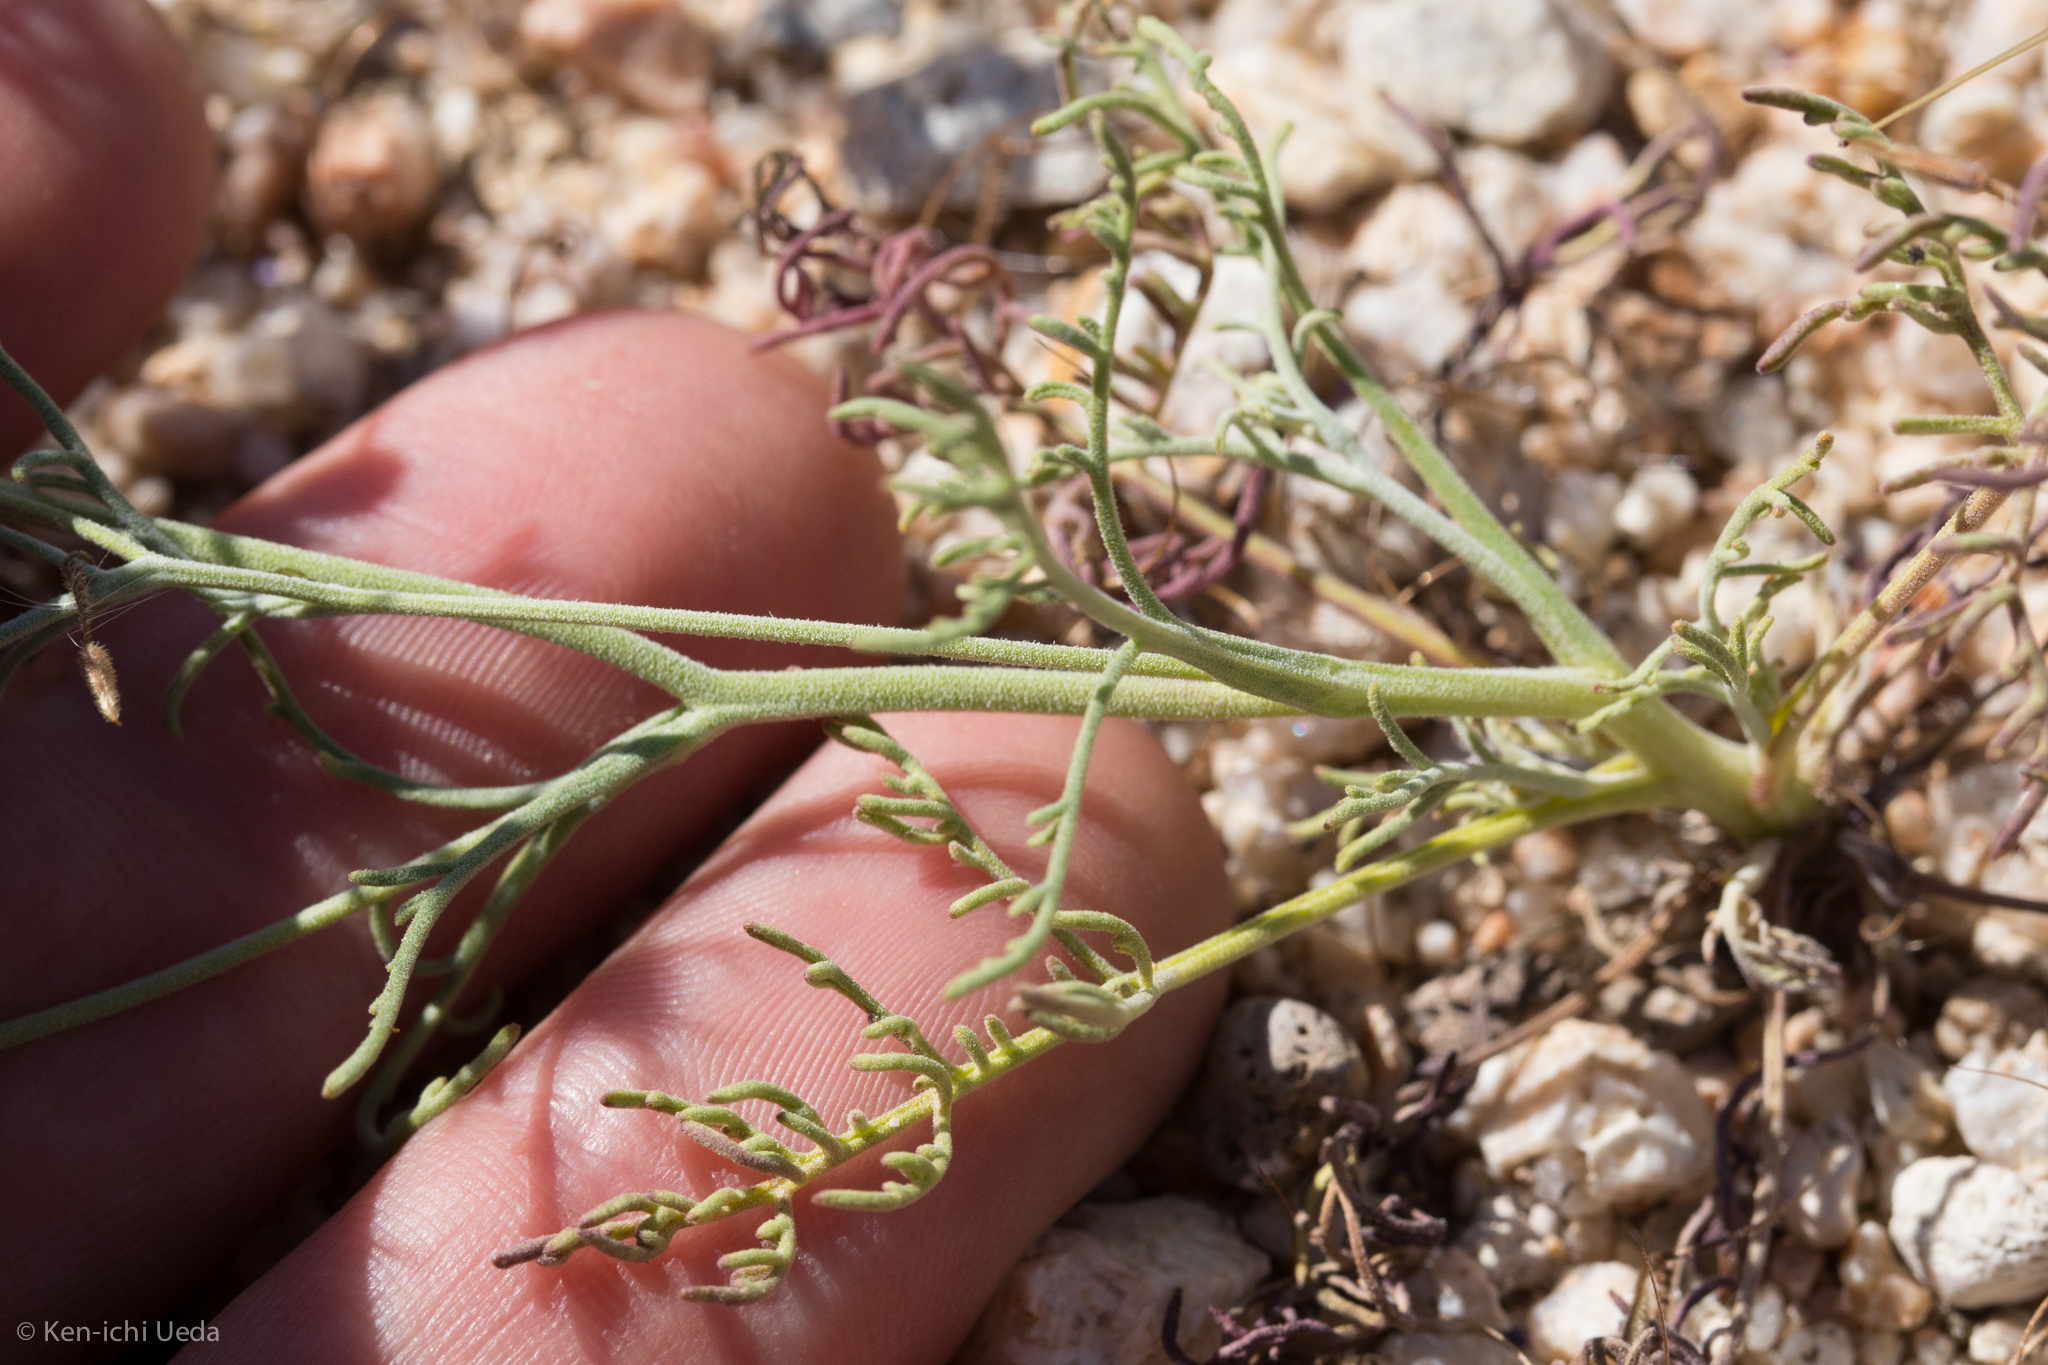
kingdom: Plantae
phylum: Tracheophyta
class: Magnoliopsida
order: Asterales
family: Asteraceae
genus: Chaenactis
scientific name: Chaenactis carphoclinia
